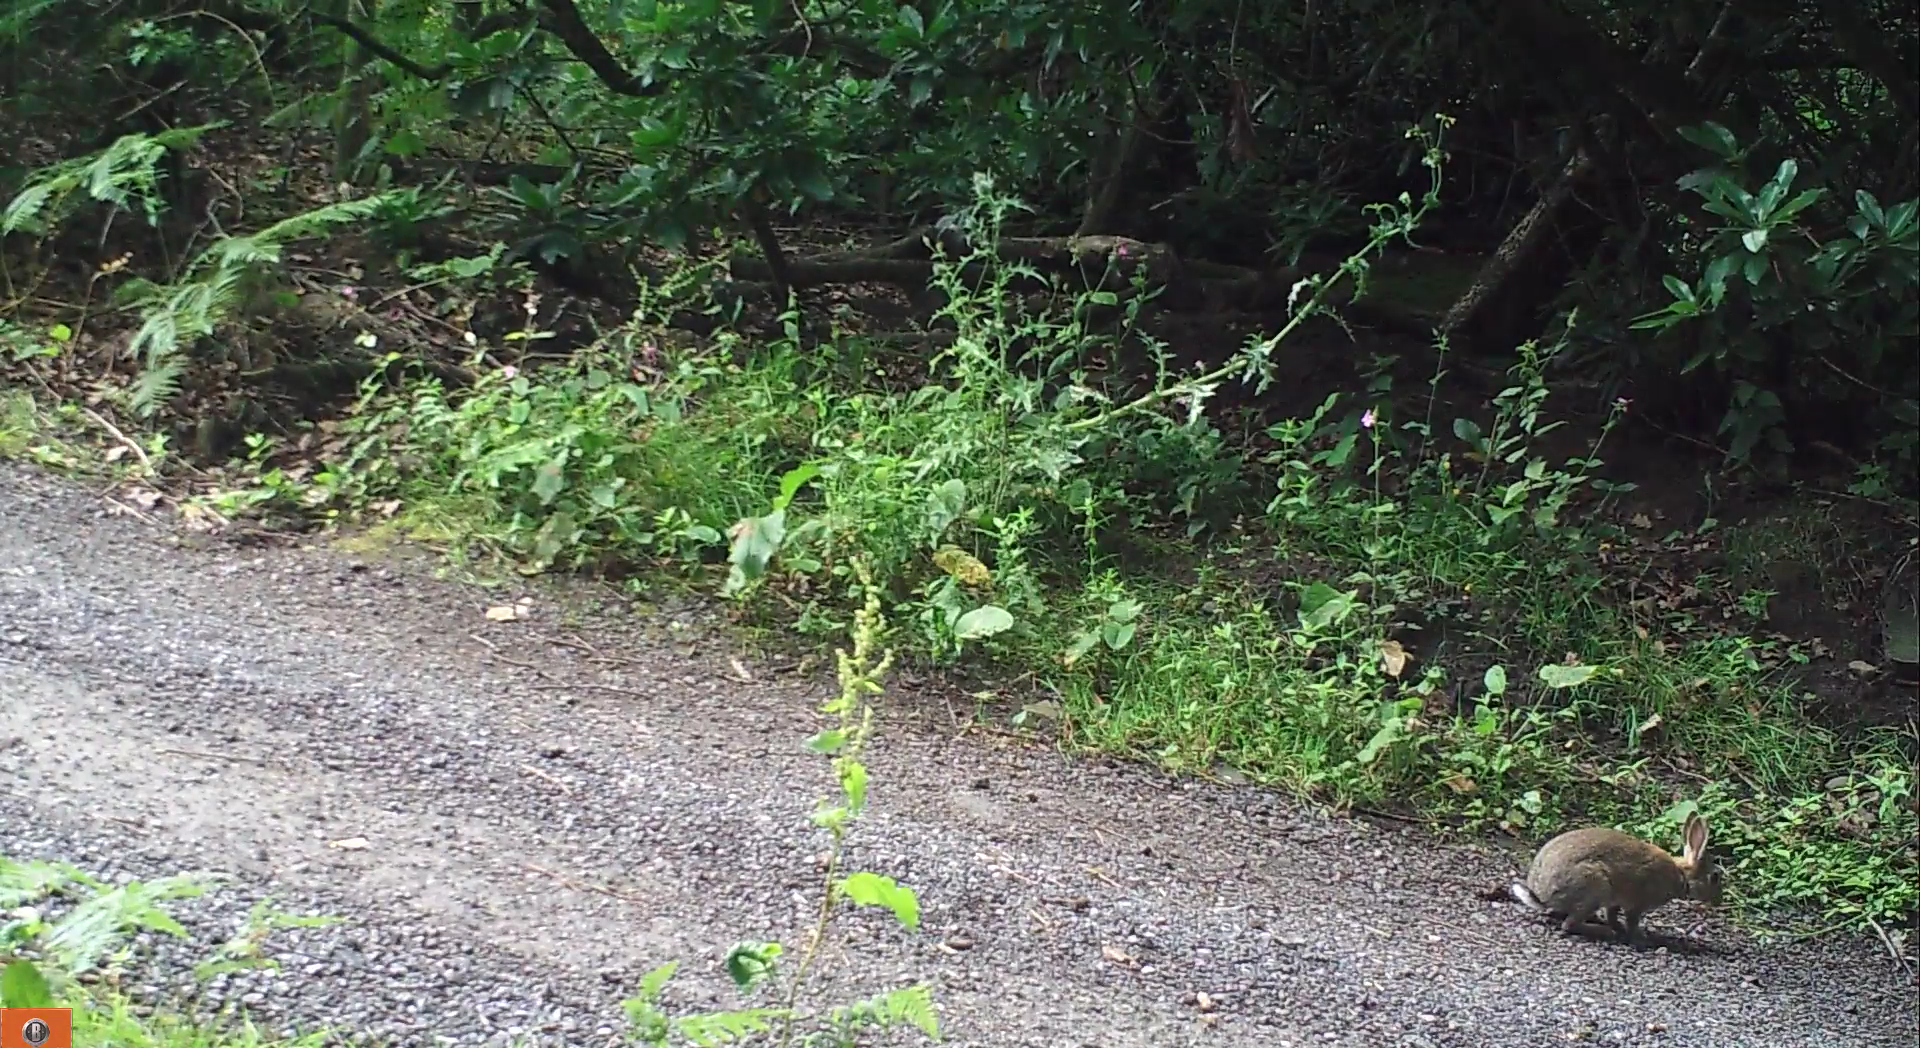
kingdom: Animalia
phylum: Chordata
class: Mammalia
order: Lagomorpha
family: Leporidae
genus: Oryctolagus
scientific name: Oryctolagus cuniculus
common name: European rabbit
